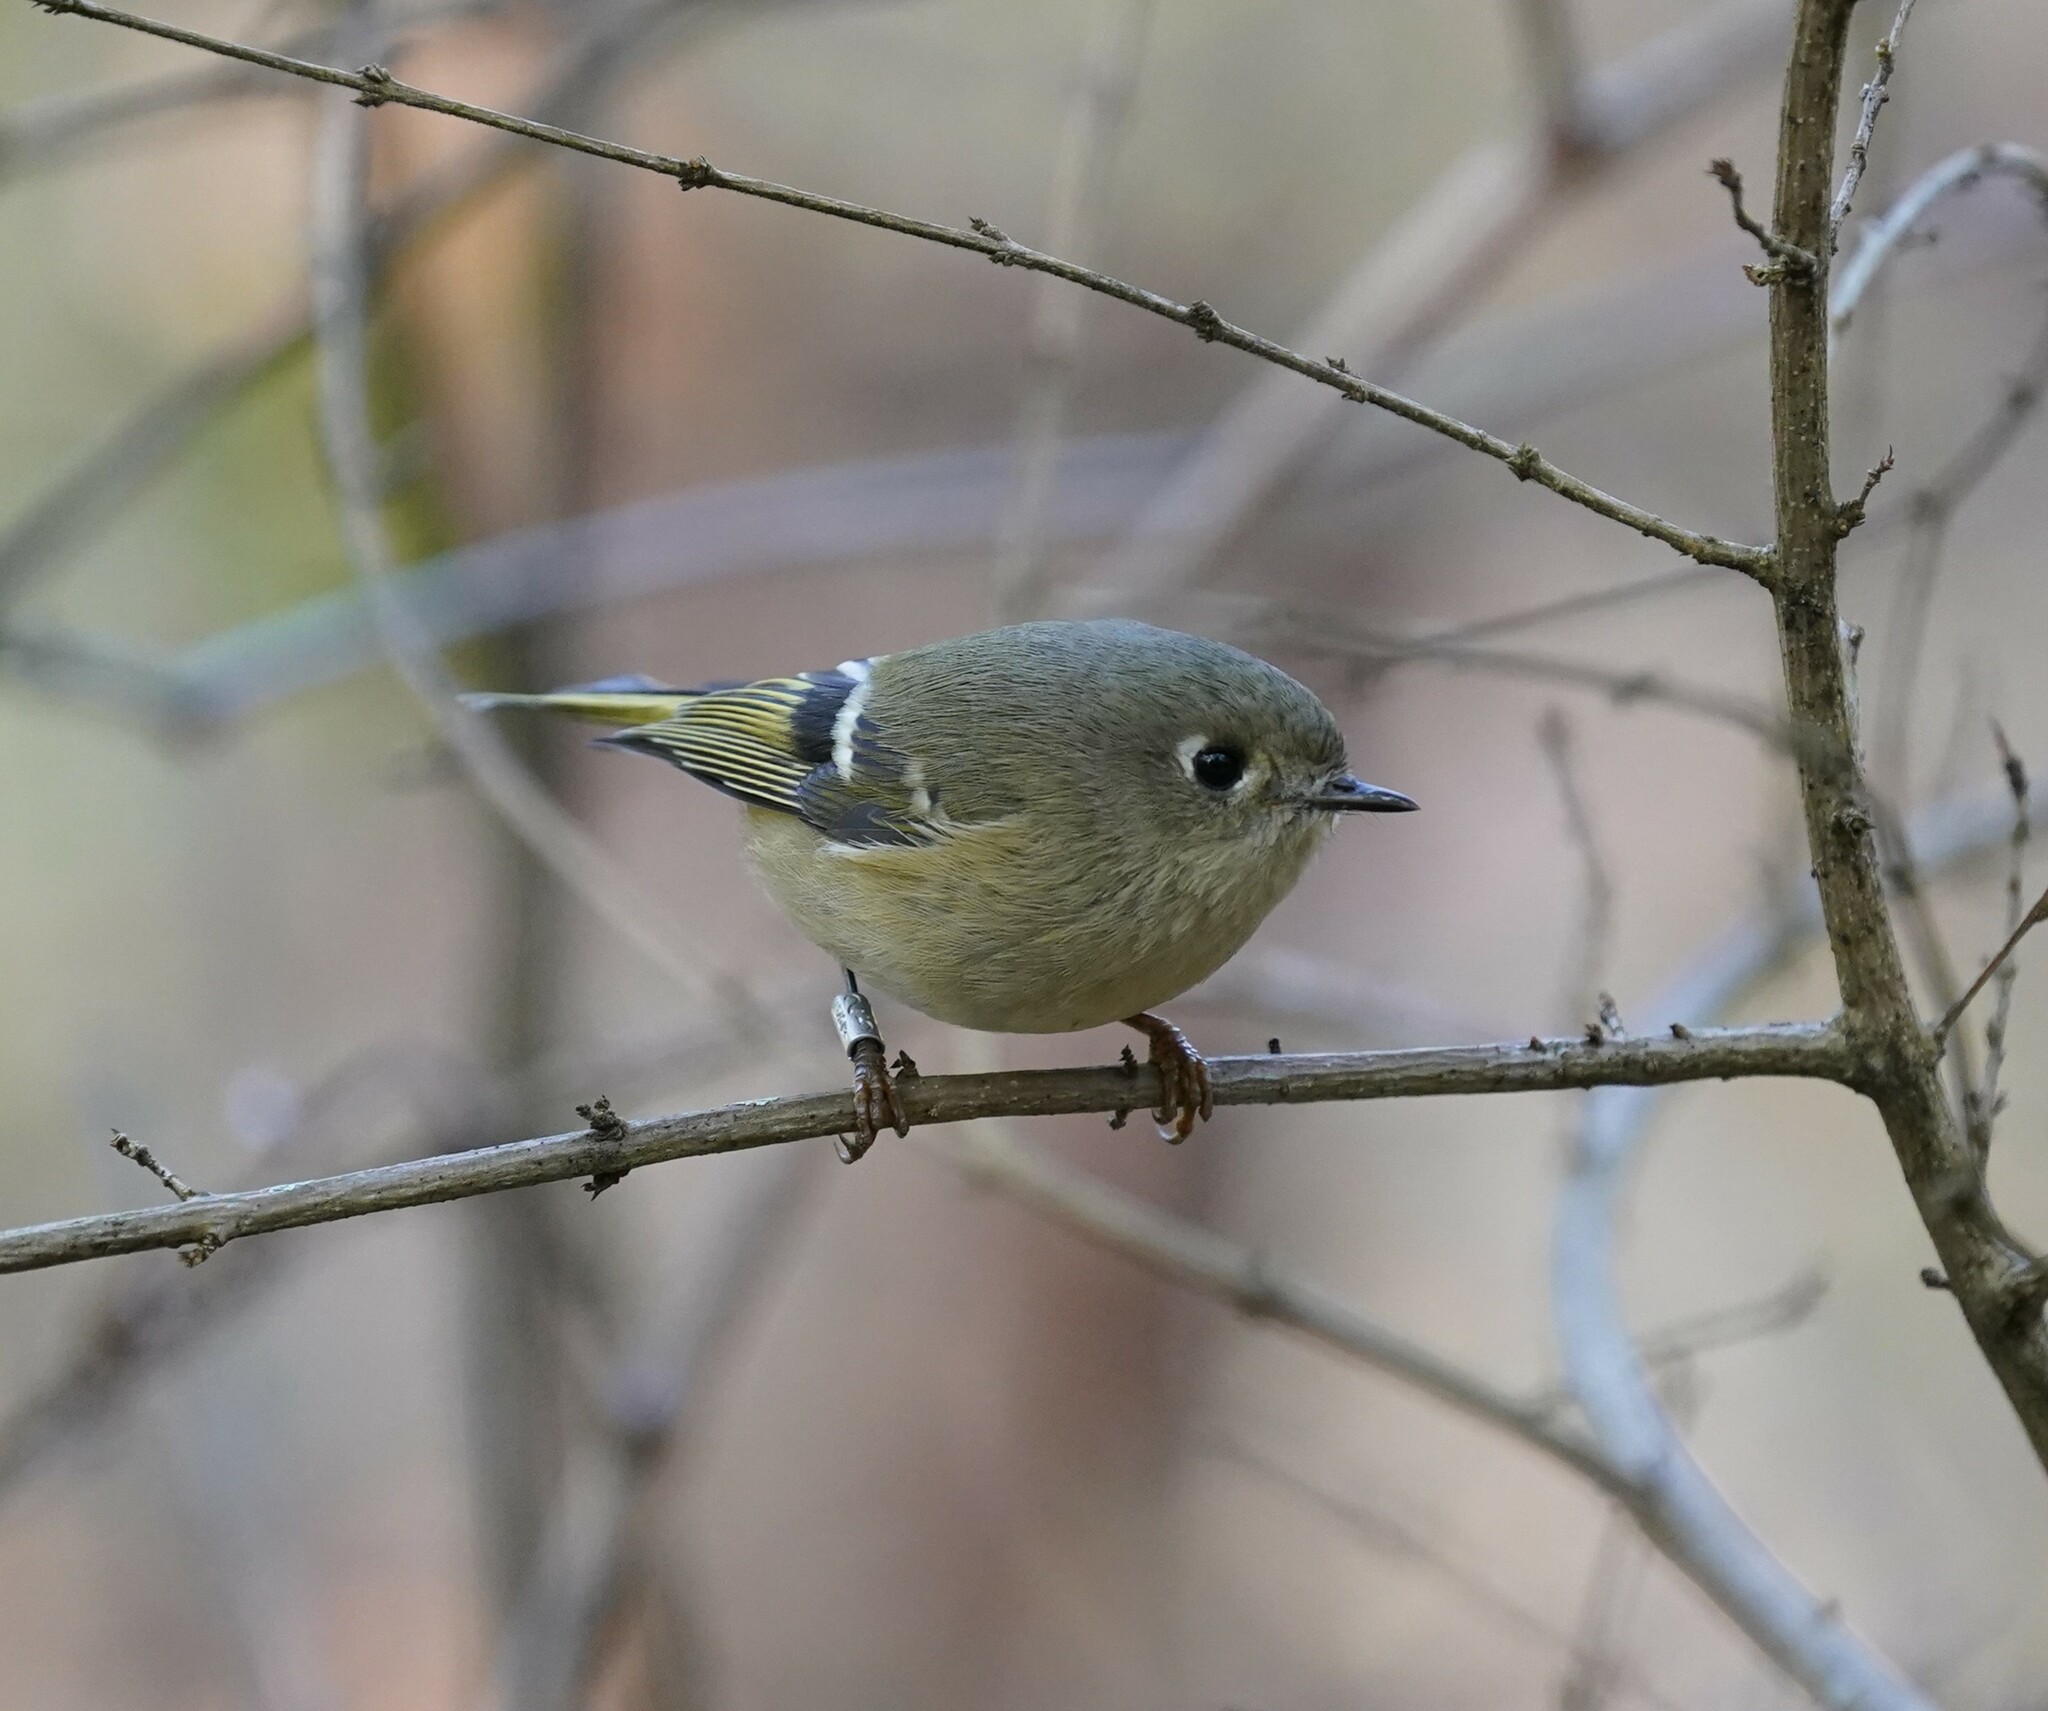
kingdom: Animalia
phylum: Chordata
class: Aves
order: Passeriformes
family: Regulidae
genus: Regulus
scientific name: Regulus calendula
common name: Ruby-crowned kinglet
